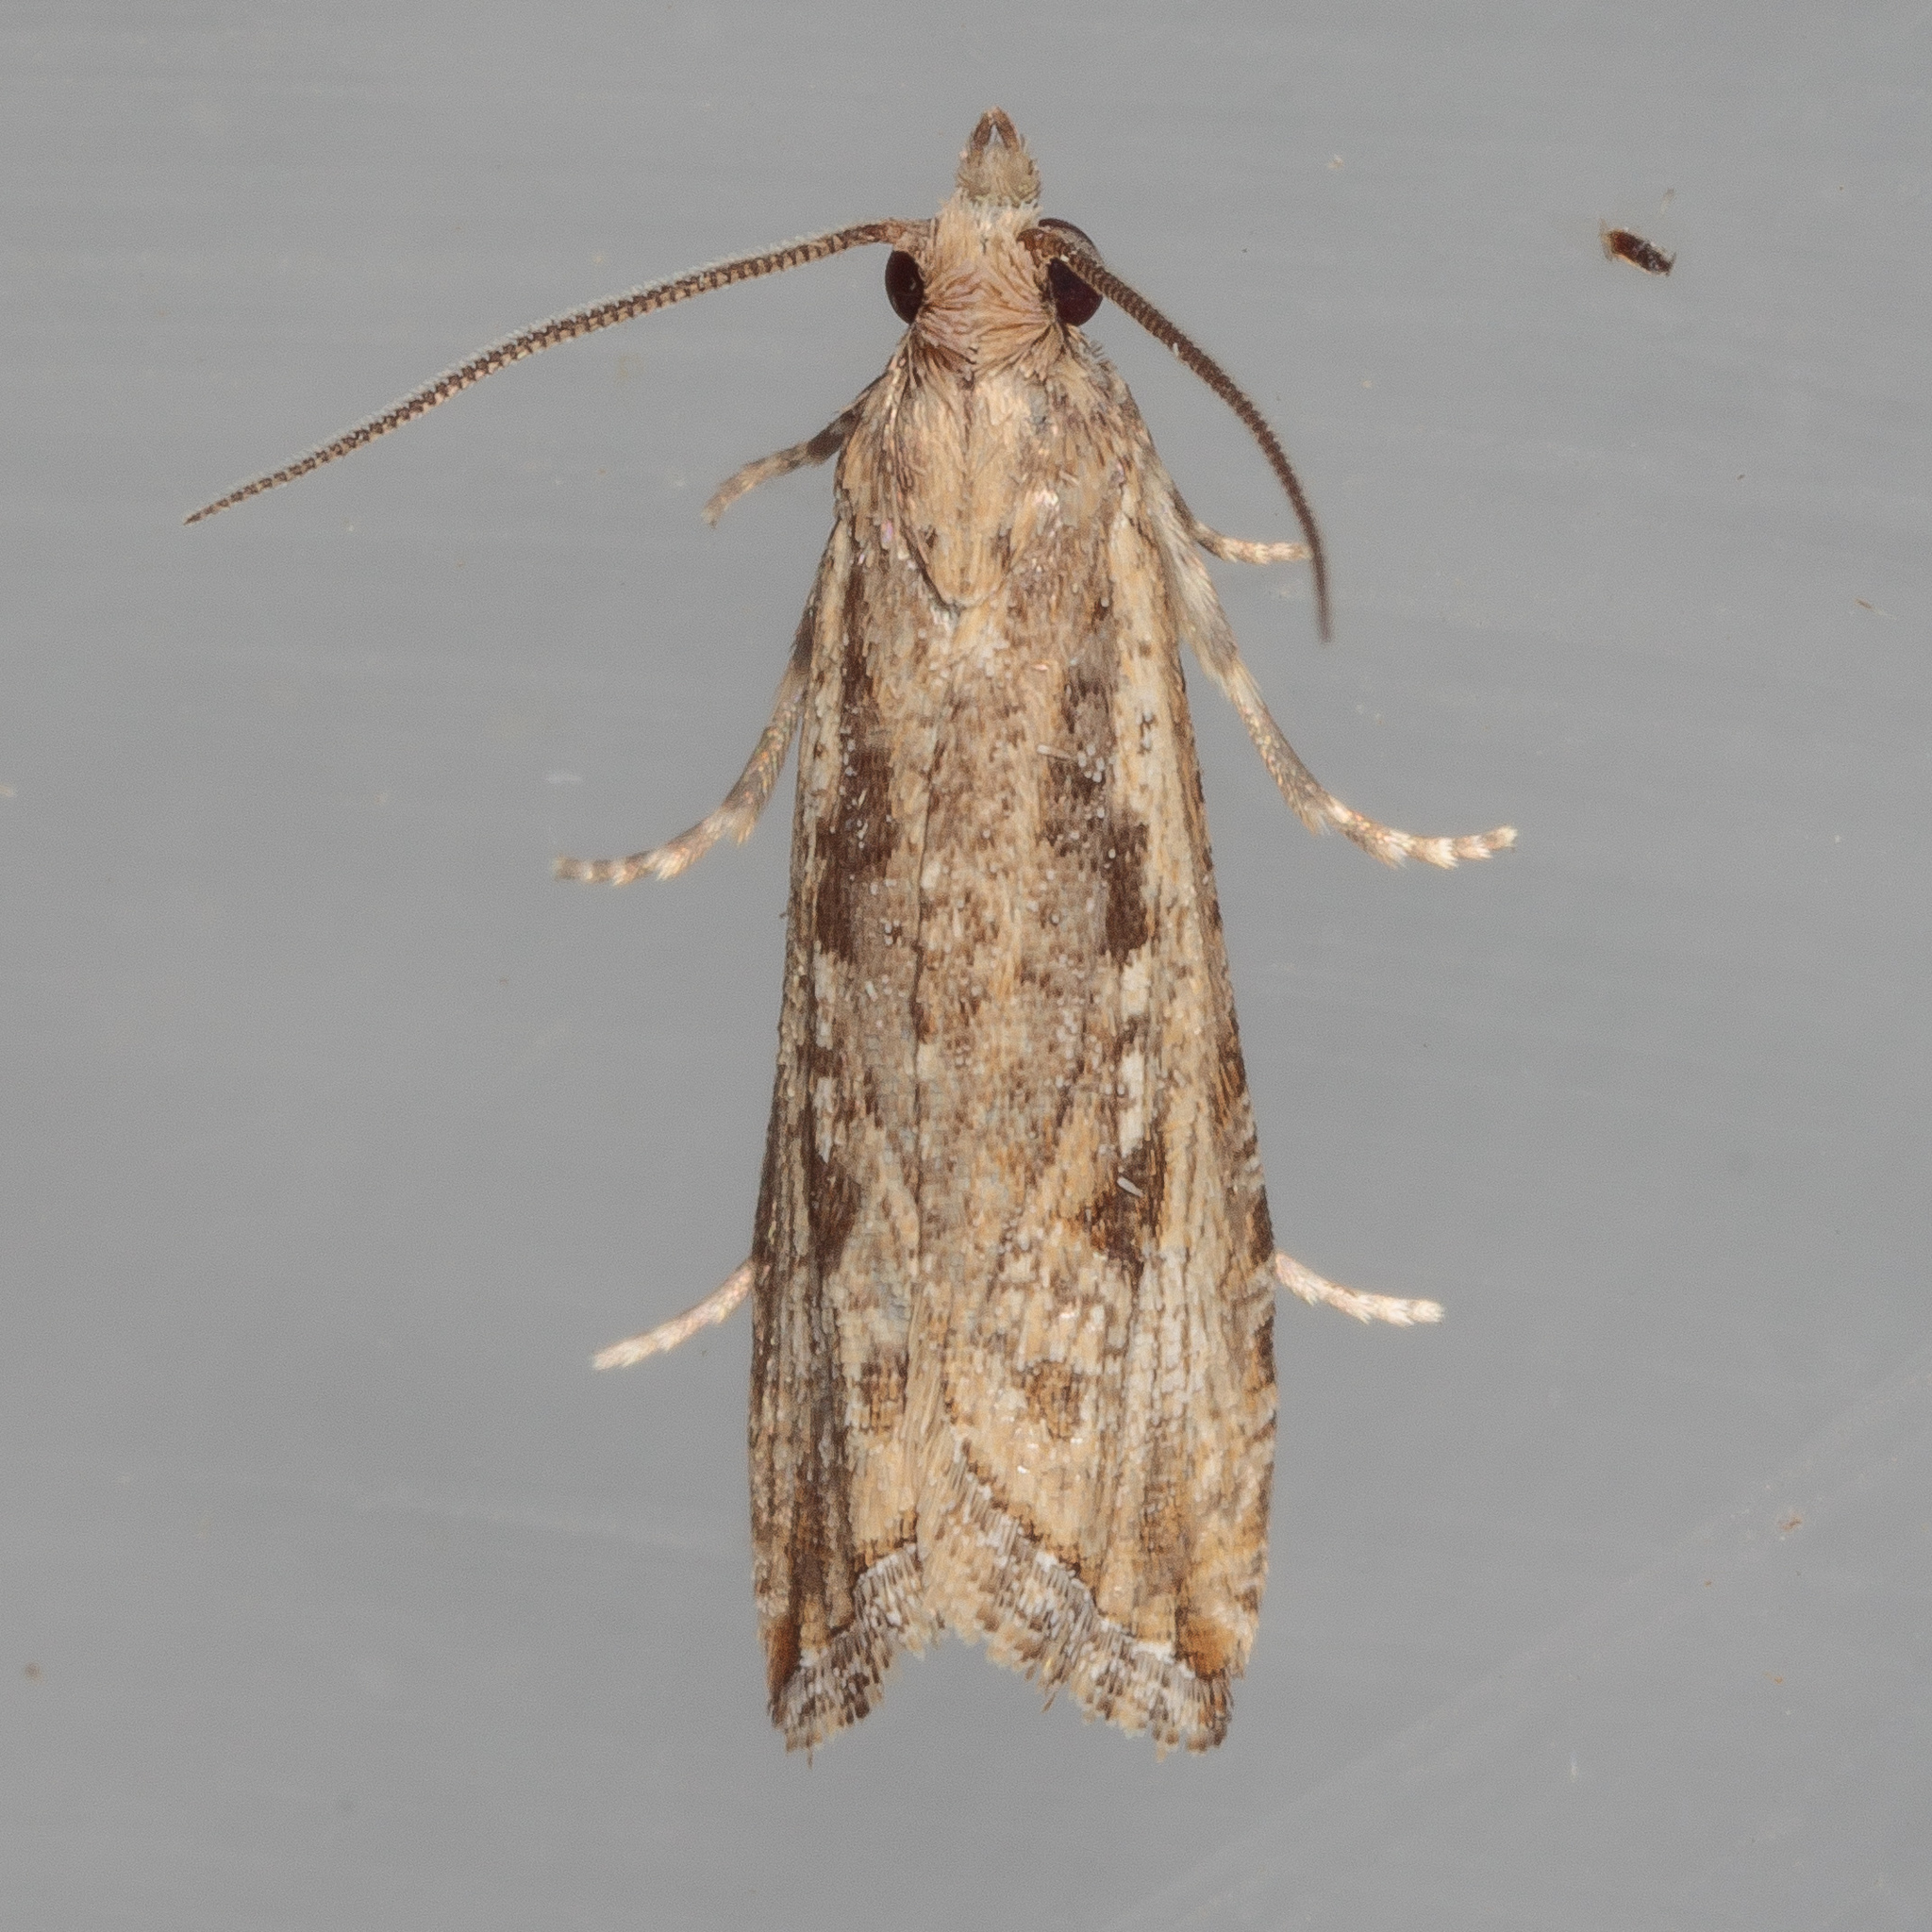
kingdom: Animalia
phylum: Arthropoda
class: Insecta
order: Lepidoptera
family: Tortricidae
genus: Bactra
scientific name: Bactra verutana
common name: Javelin moth
